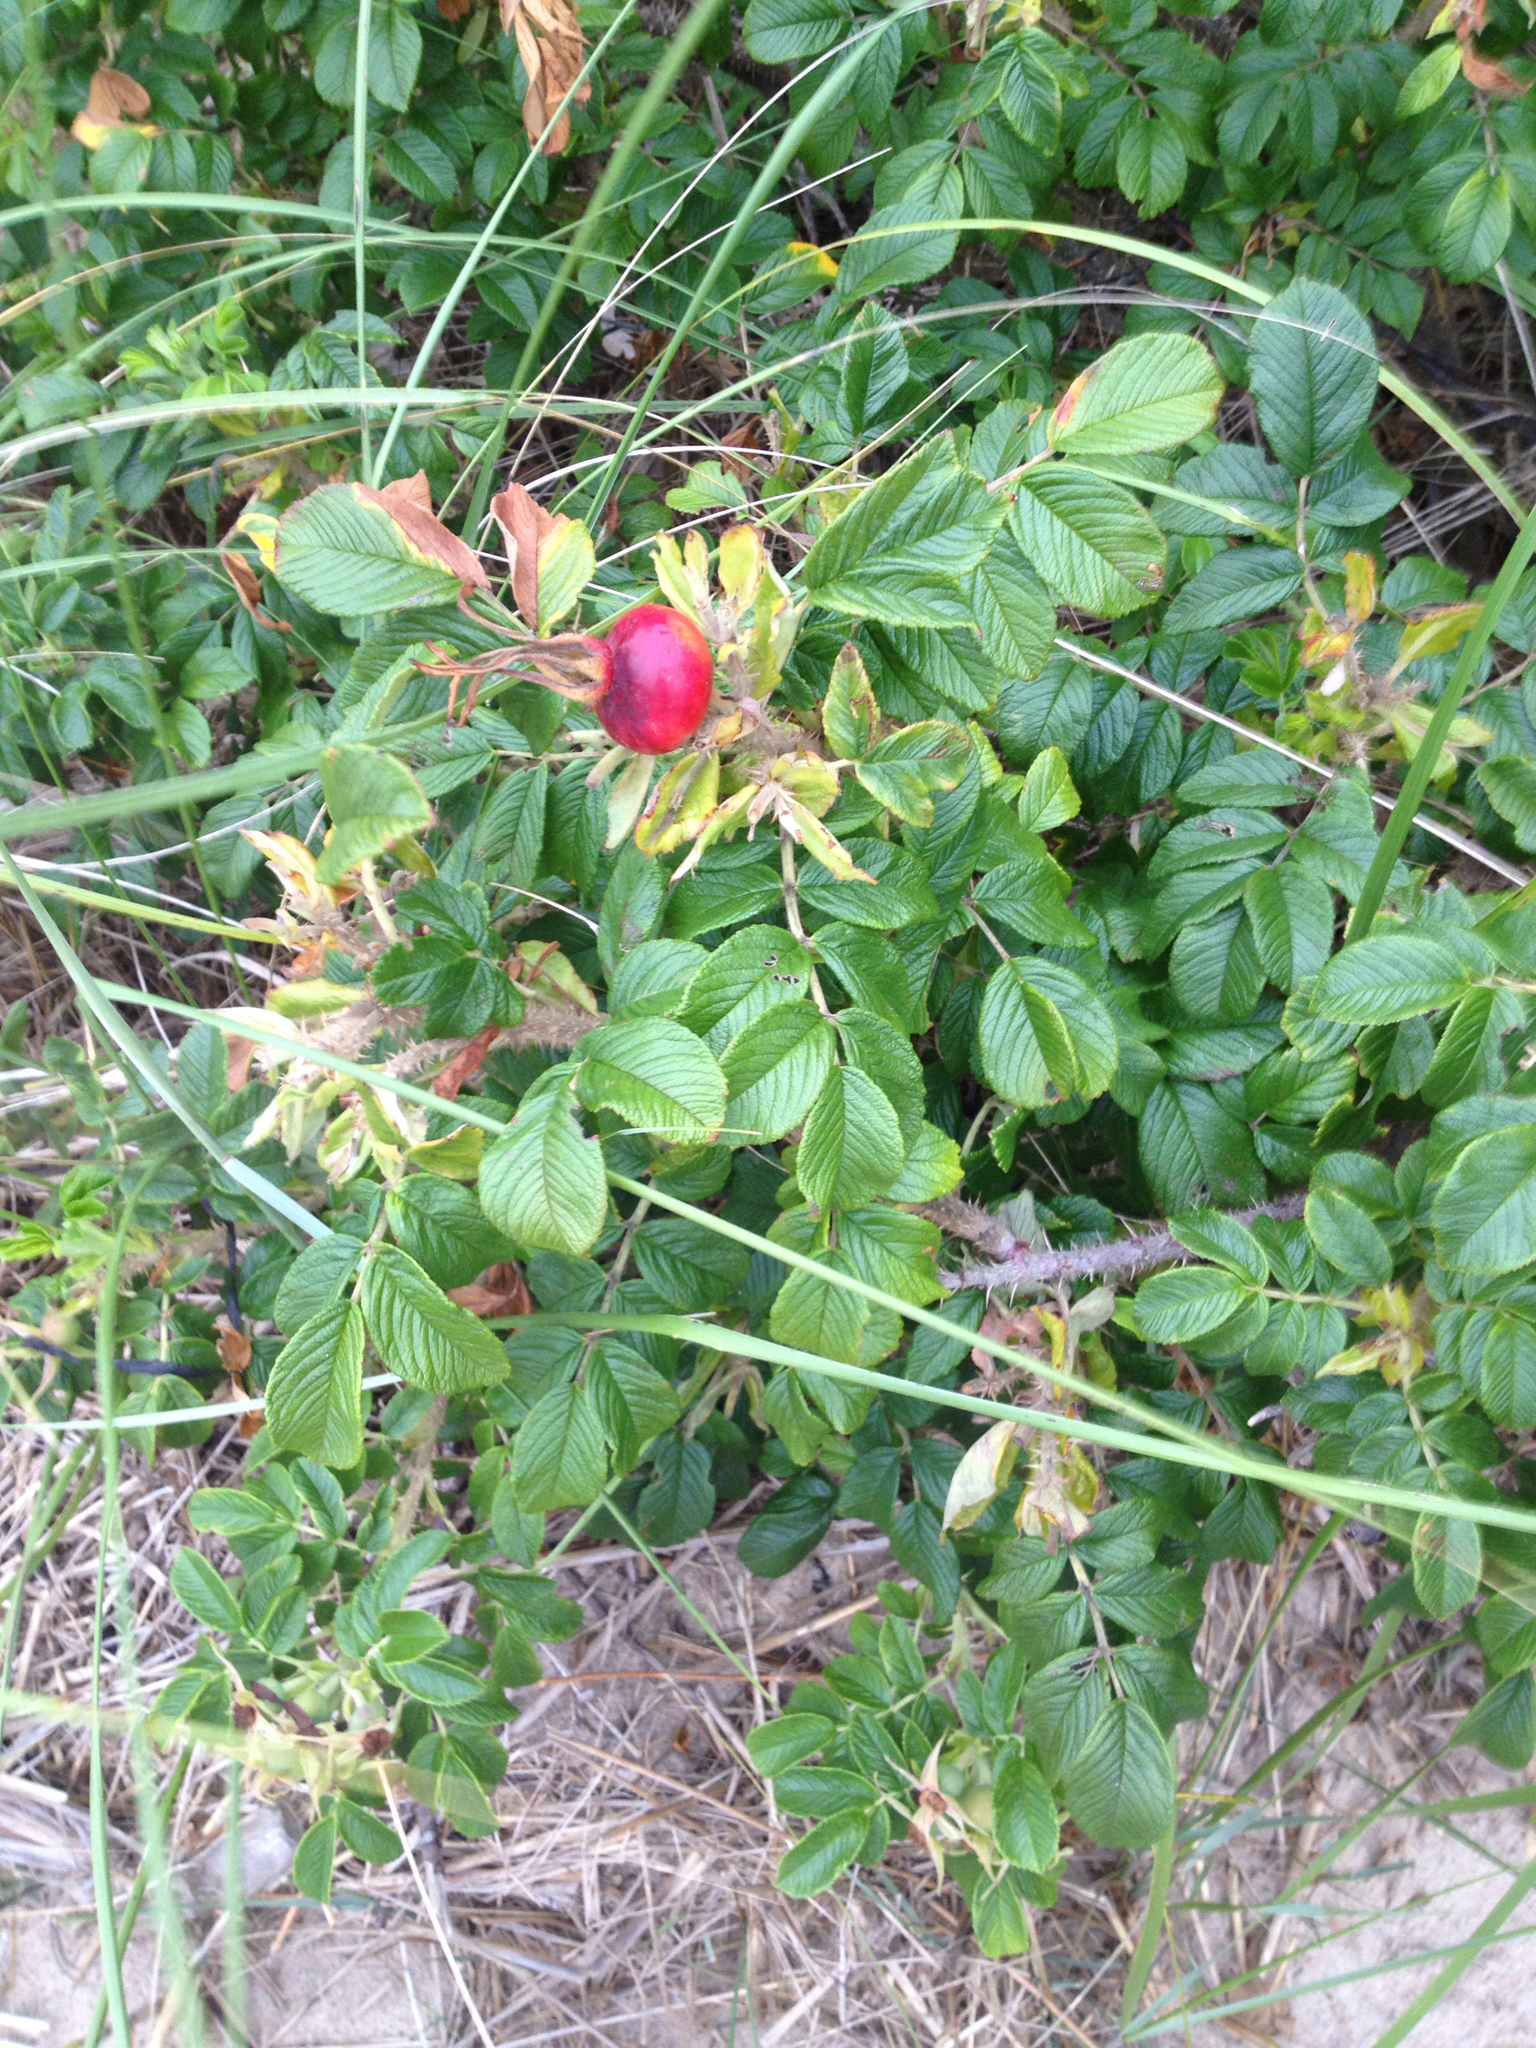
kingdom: Plantae
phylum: Tracheophyta
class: Magnoliopsida
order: Rosales
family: Rosaceae
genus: Rosa
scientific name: Rosa rugosa
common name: Japanese rose
